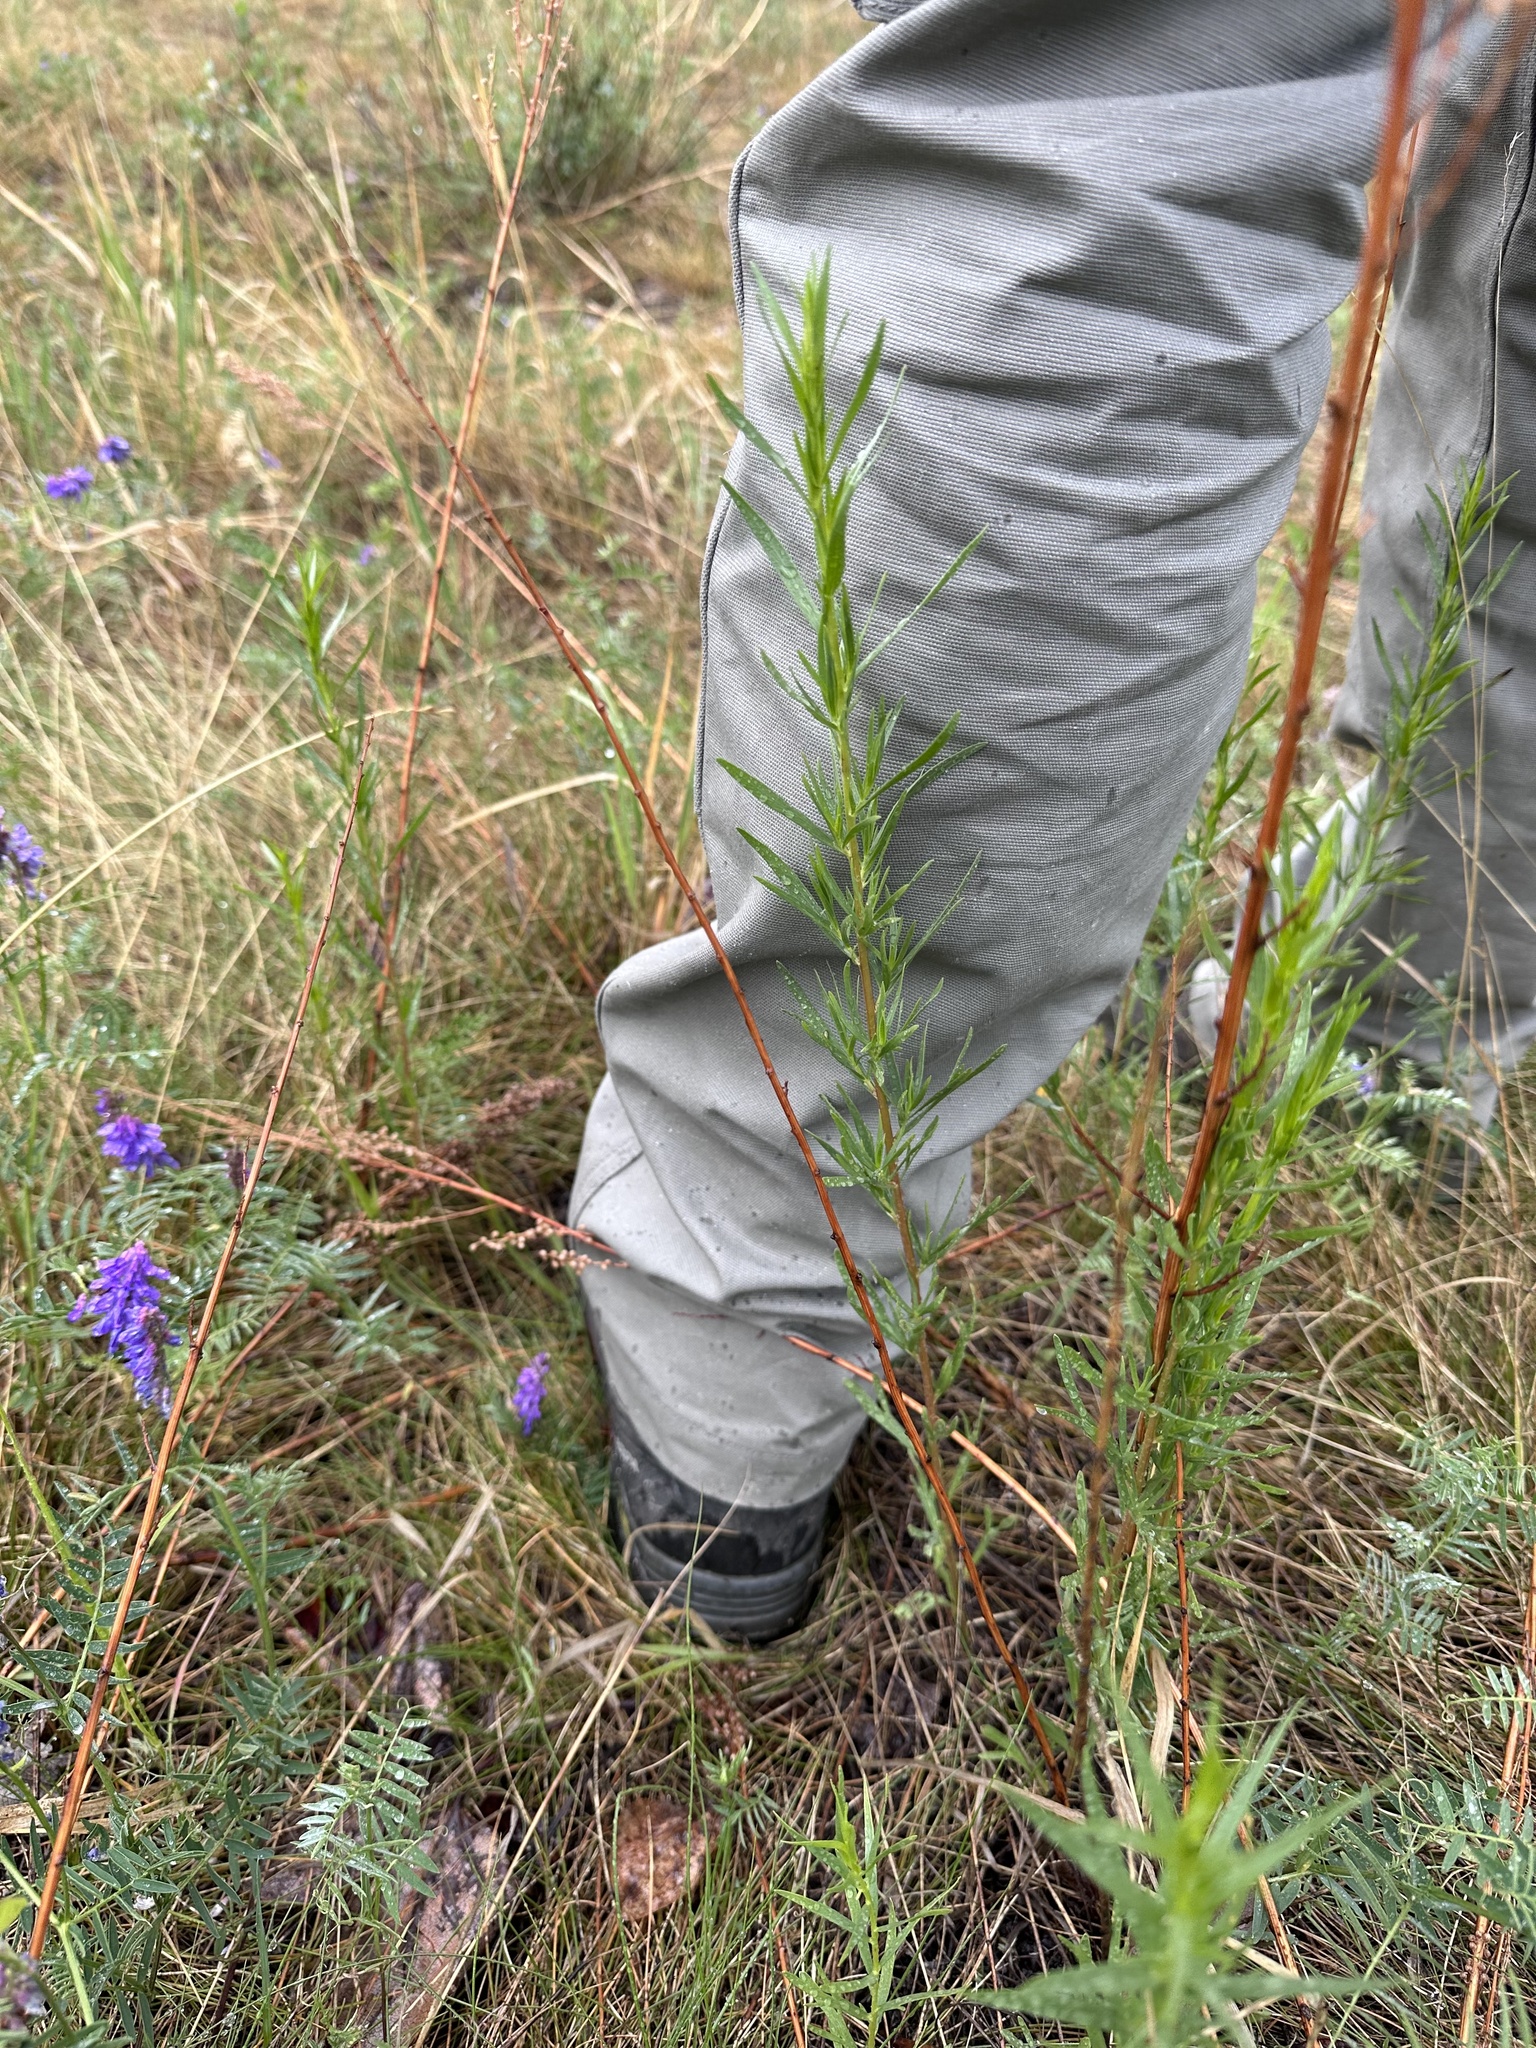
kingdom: Plantae
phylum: Tracheophyta
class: Magnoliopsida
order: Asterales
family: Asteraceae
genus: Artemisia
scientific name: Artemisia dracunculus
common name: Tarragon
